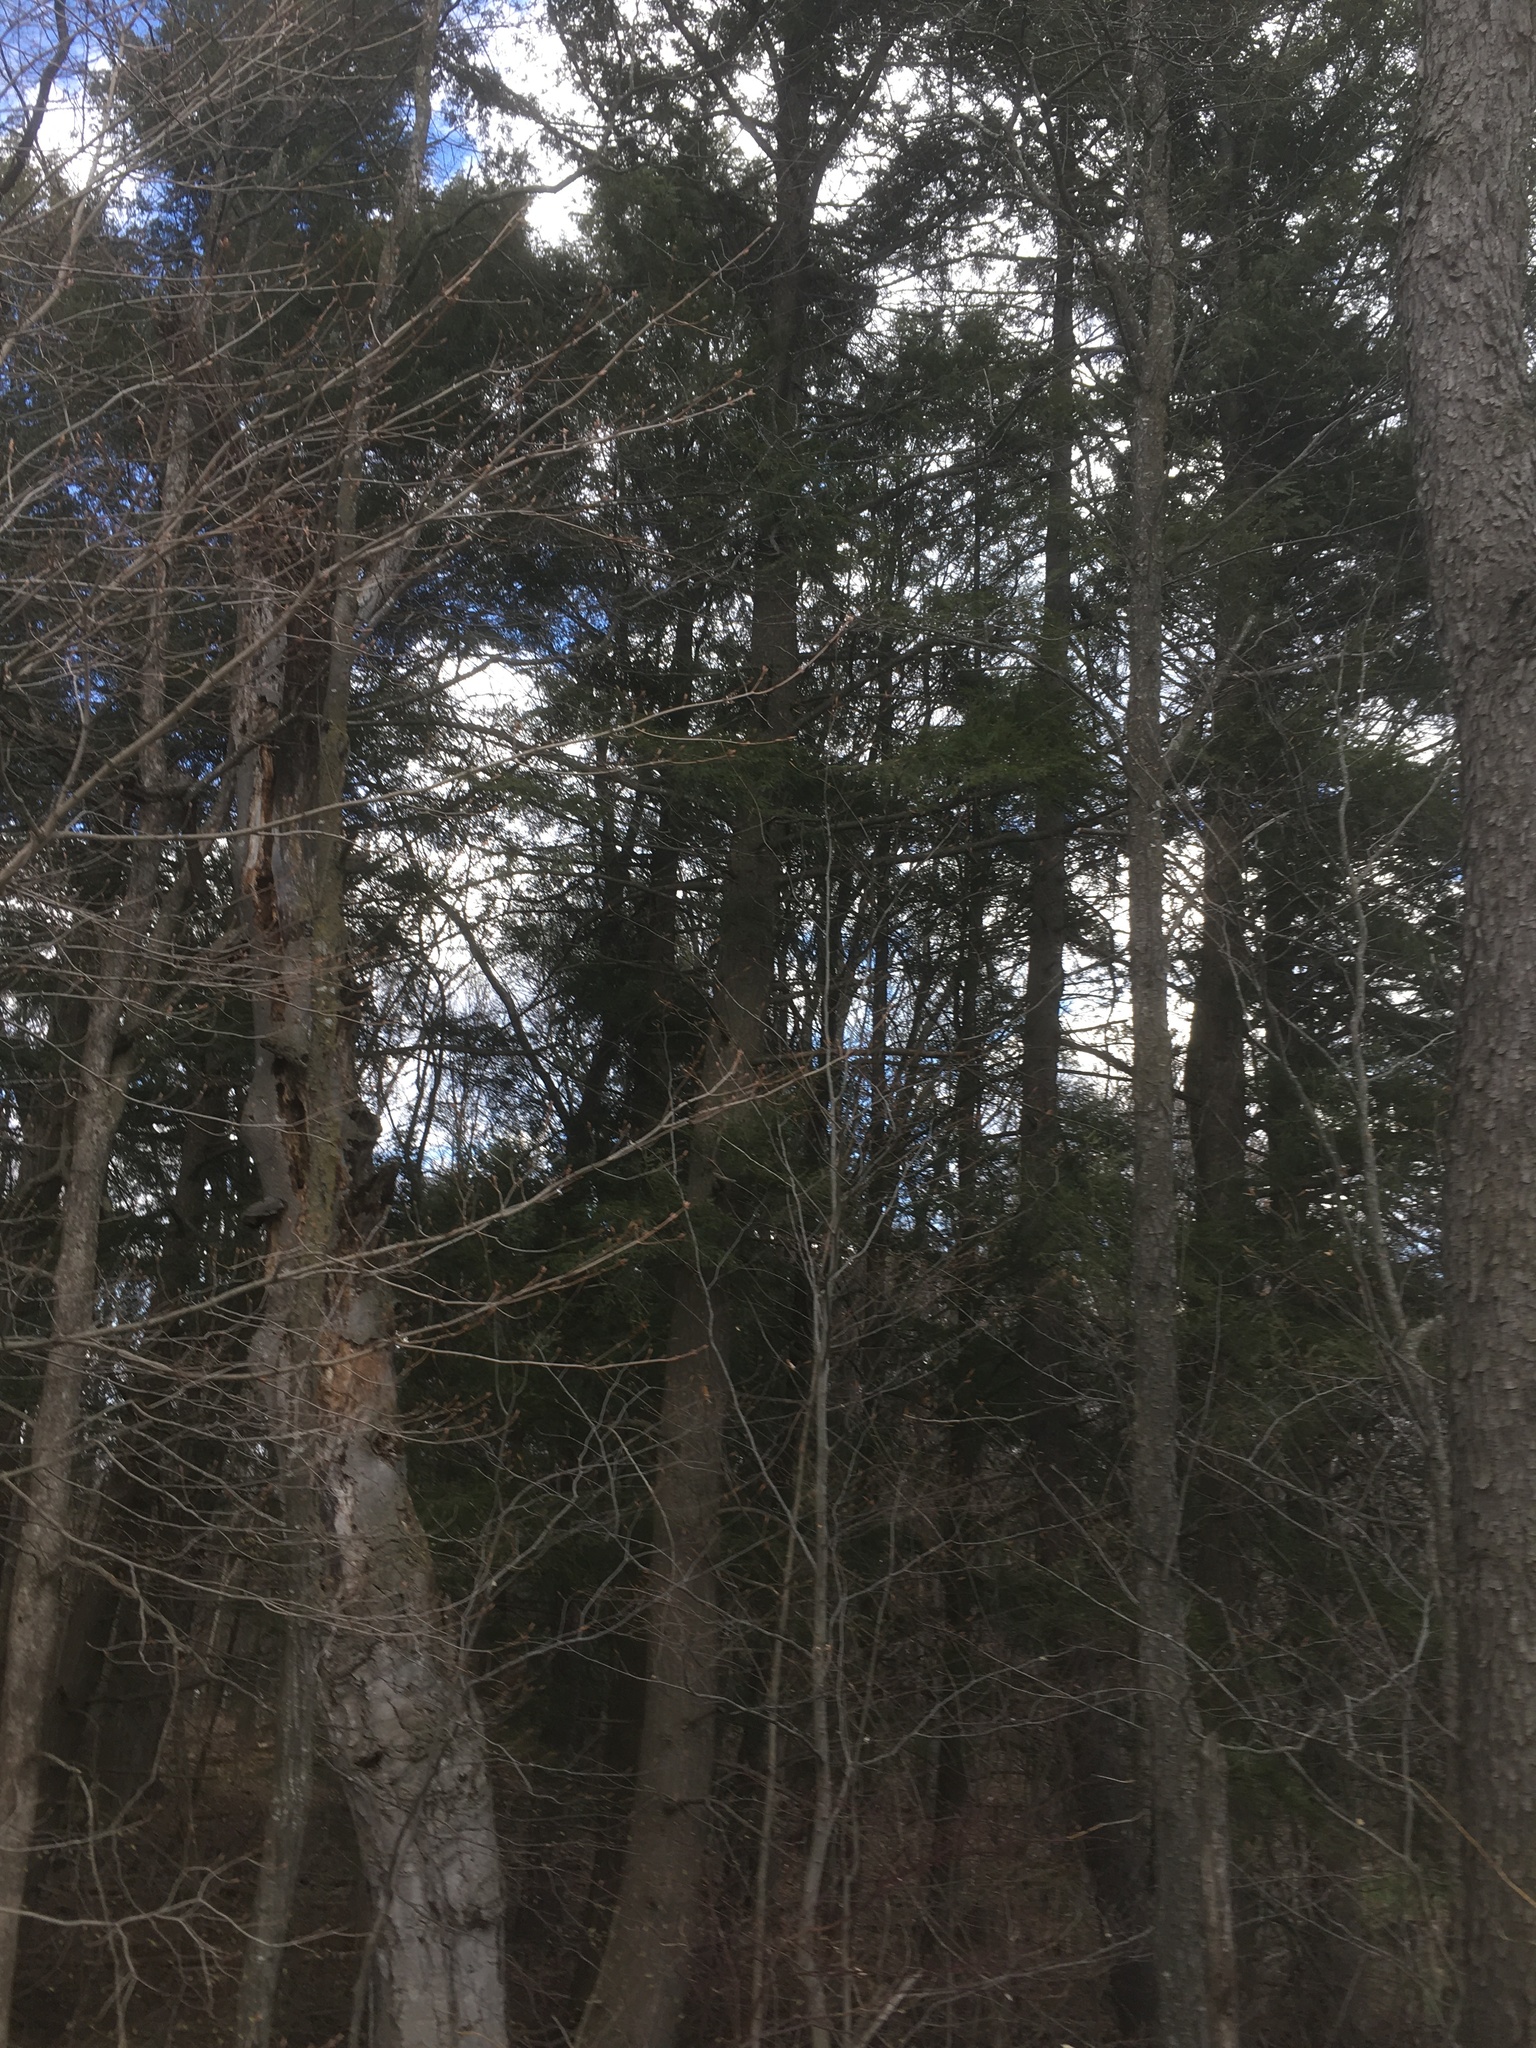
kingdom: Plantae
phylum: Tracheophyta
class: Pinopsida
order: Pinales
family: Pinaceae
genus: Tsuga
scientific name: Tsuga canadensis
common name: Eastern hemlock
